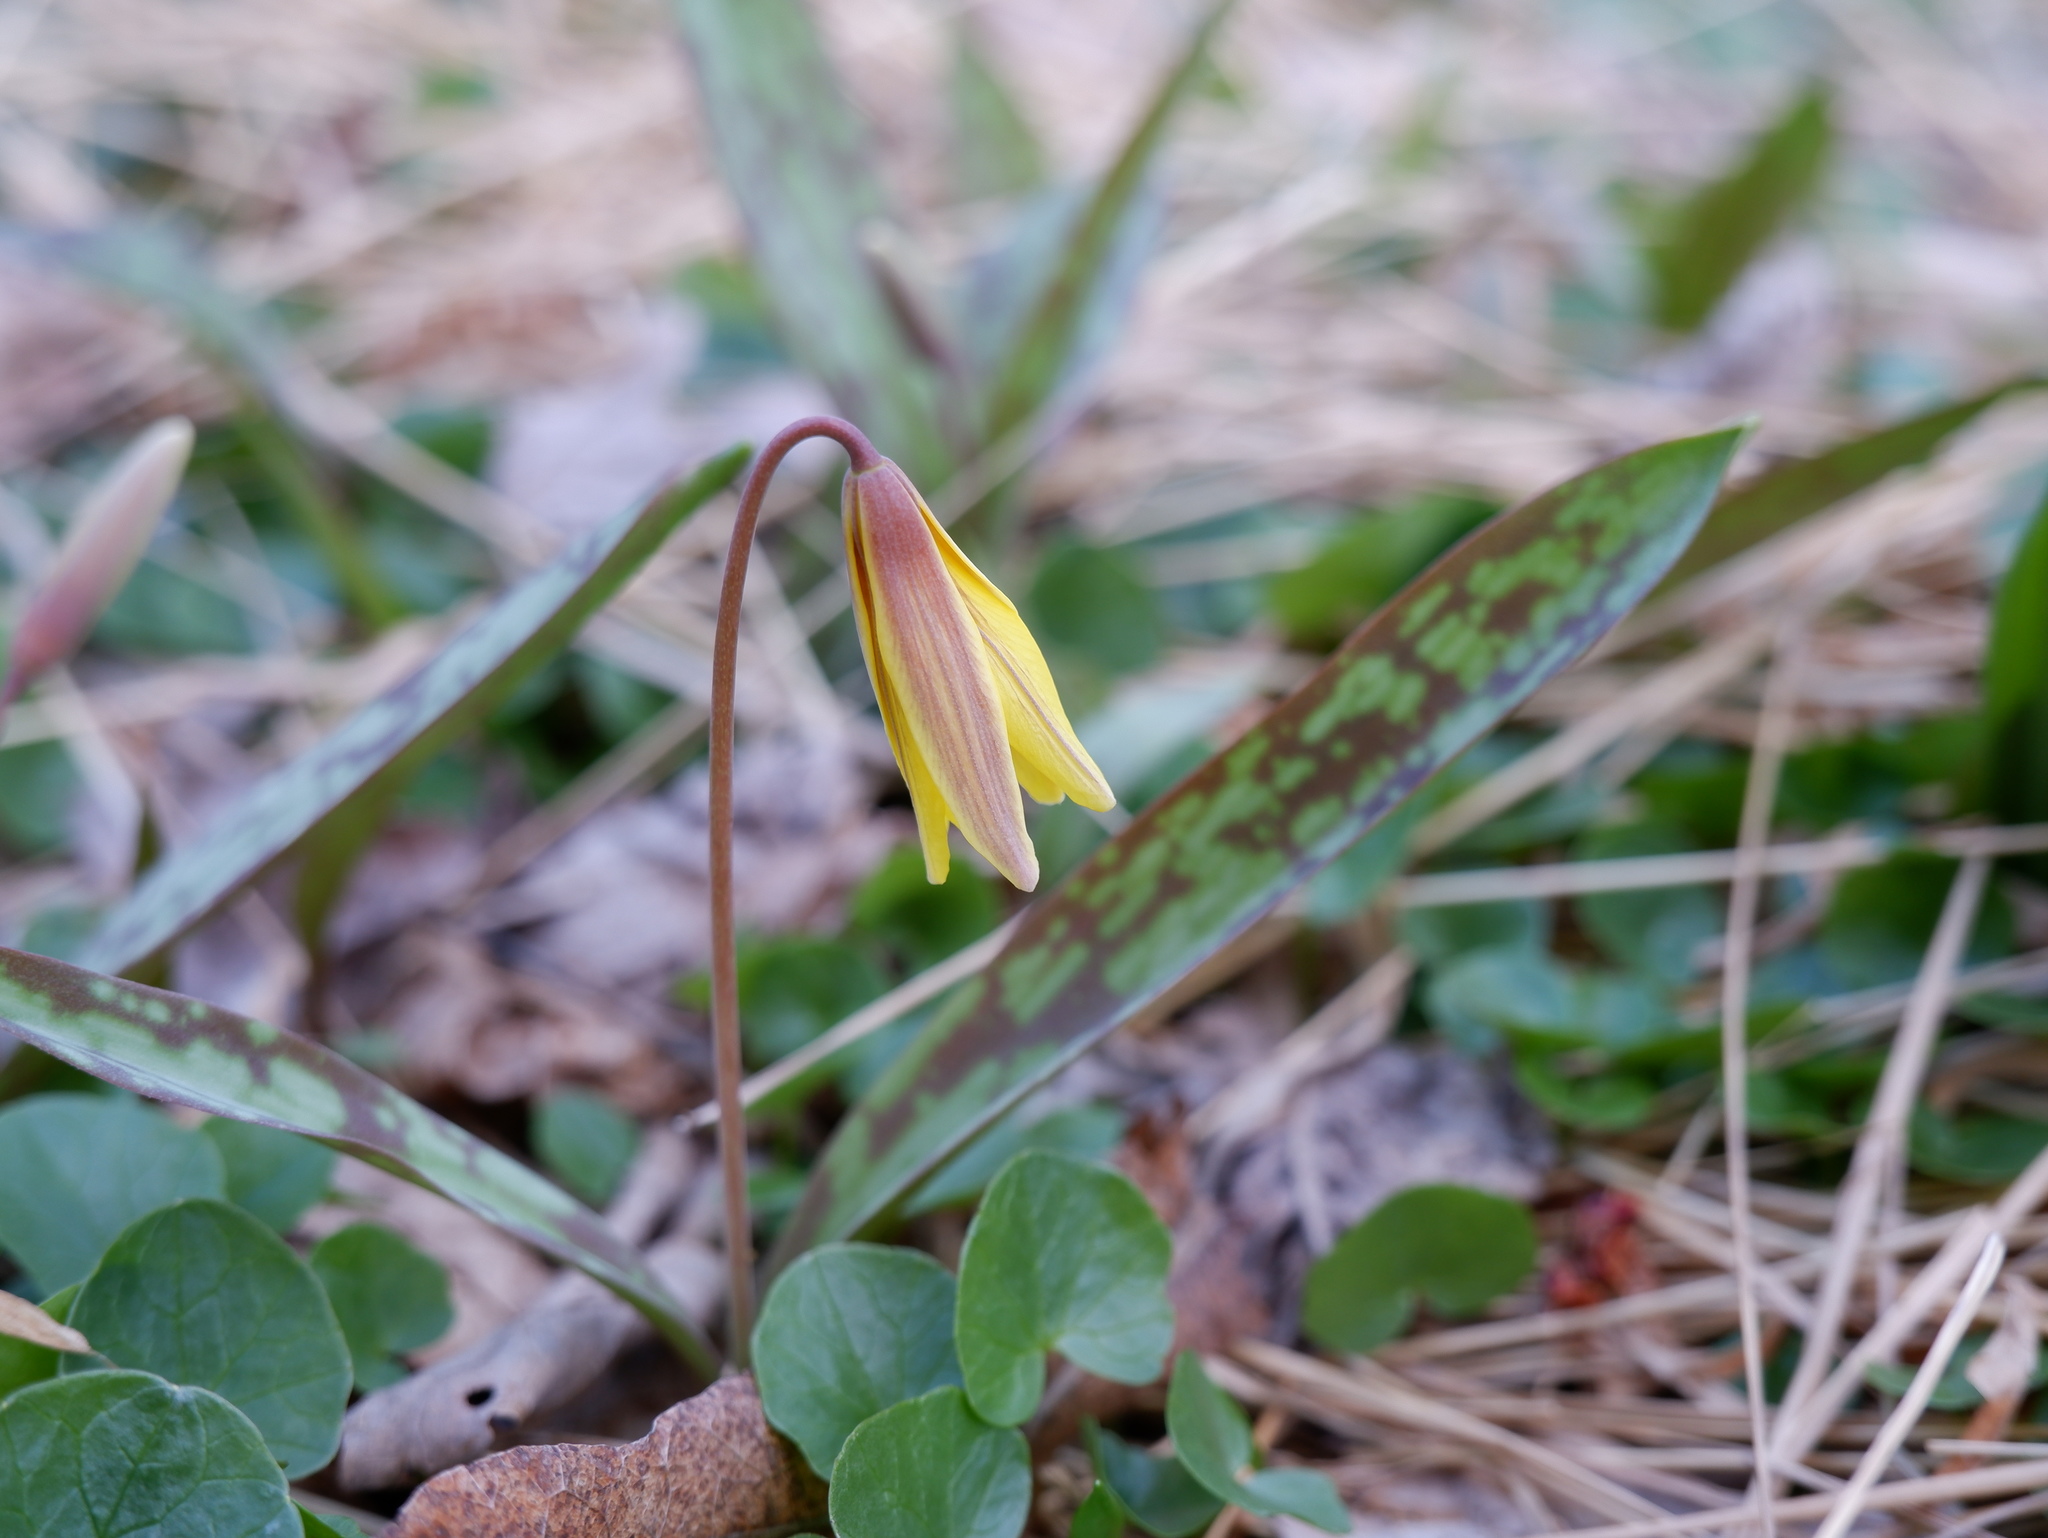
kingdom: Plantae
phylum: Tracheophyta
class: Liliopsida
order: Liliales
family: Liliaceae
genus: Erythronium
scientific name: Erythronium americanum
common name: Yellow adder's-tongue
